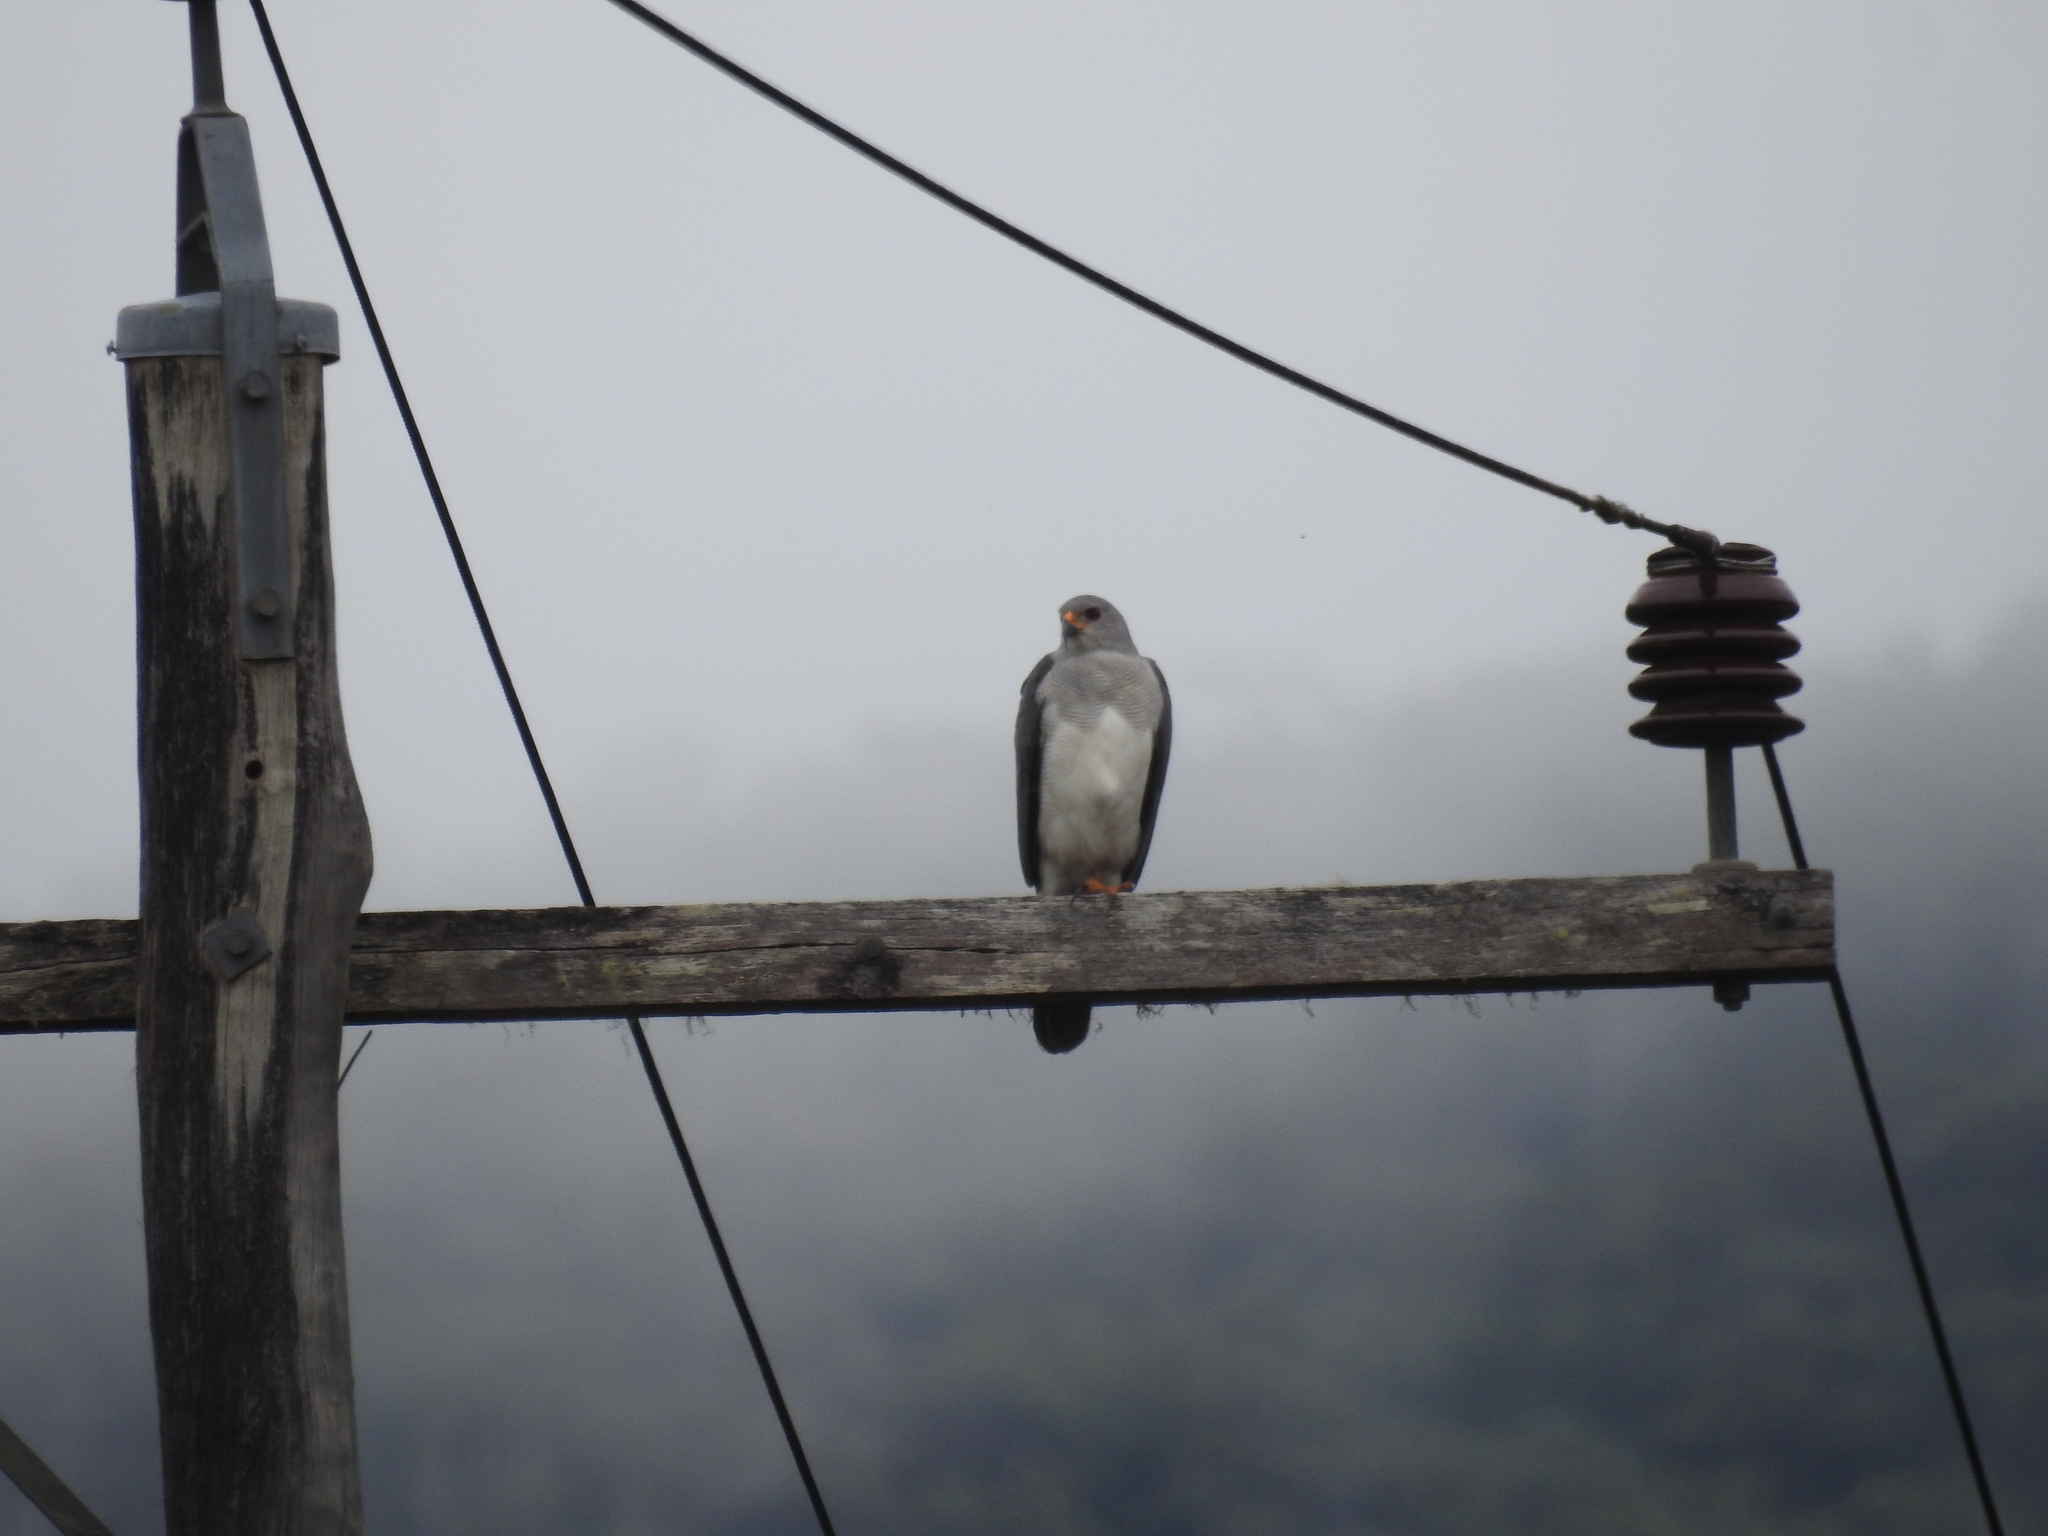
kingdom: Animalia
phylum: Chordata
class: Aves
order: Accipitriformes
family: Accipitridae
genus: Accipiter
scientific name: Accipiter novaehollandiae
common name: Grey goshawk
